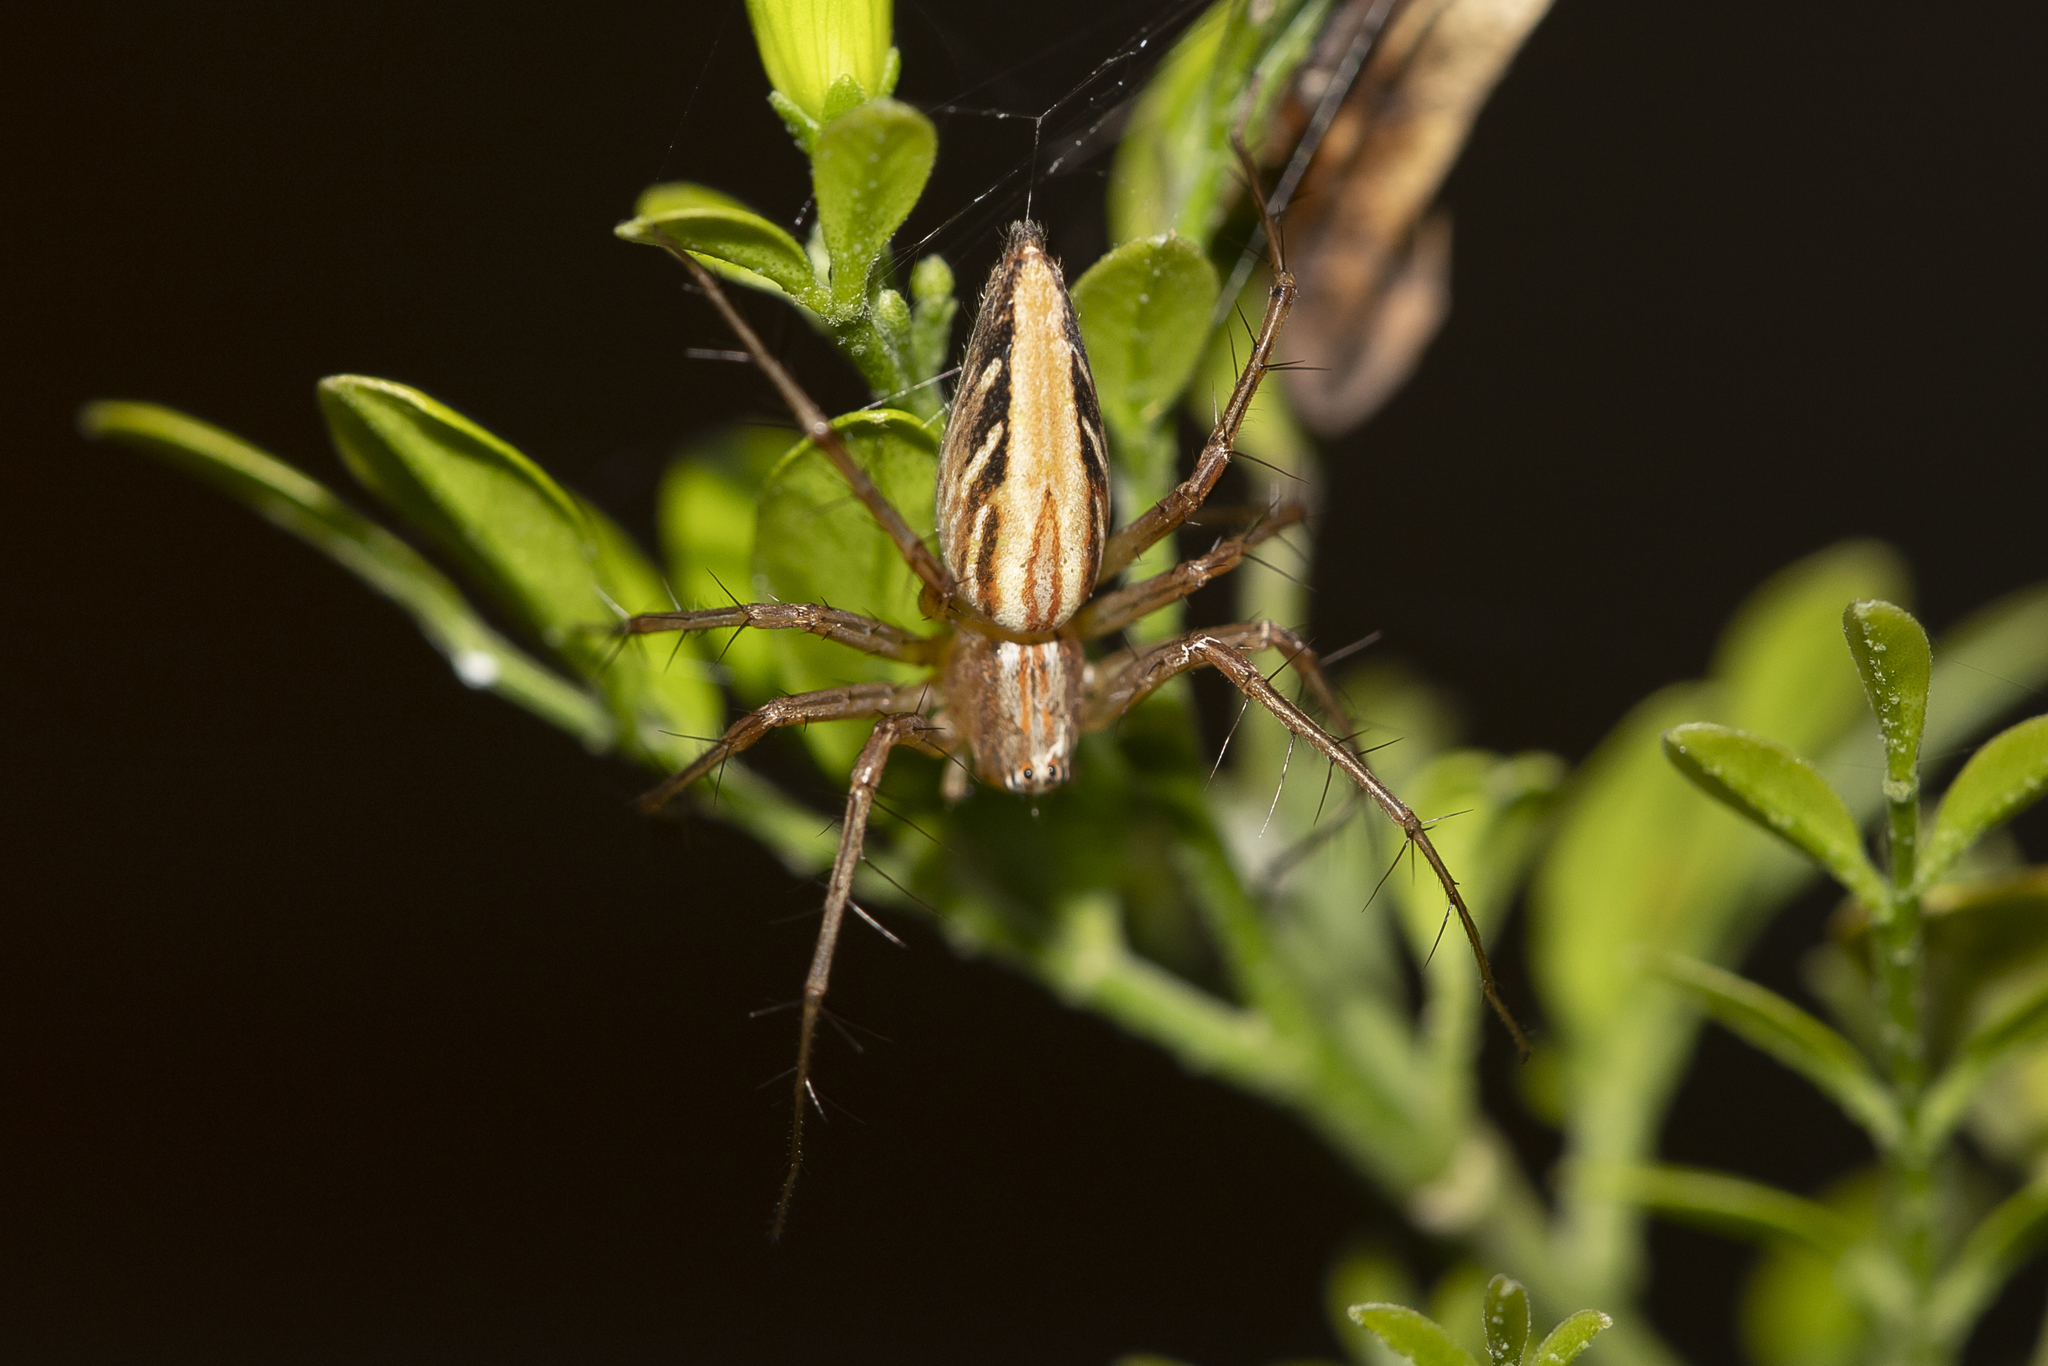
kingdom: Animalia
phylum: Arthropoda
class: Arachnida
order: Araneae
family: Oxyopidae
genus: Oxyopes
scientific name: Oxyopes papuanus
